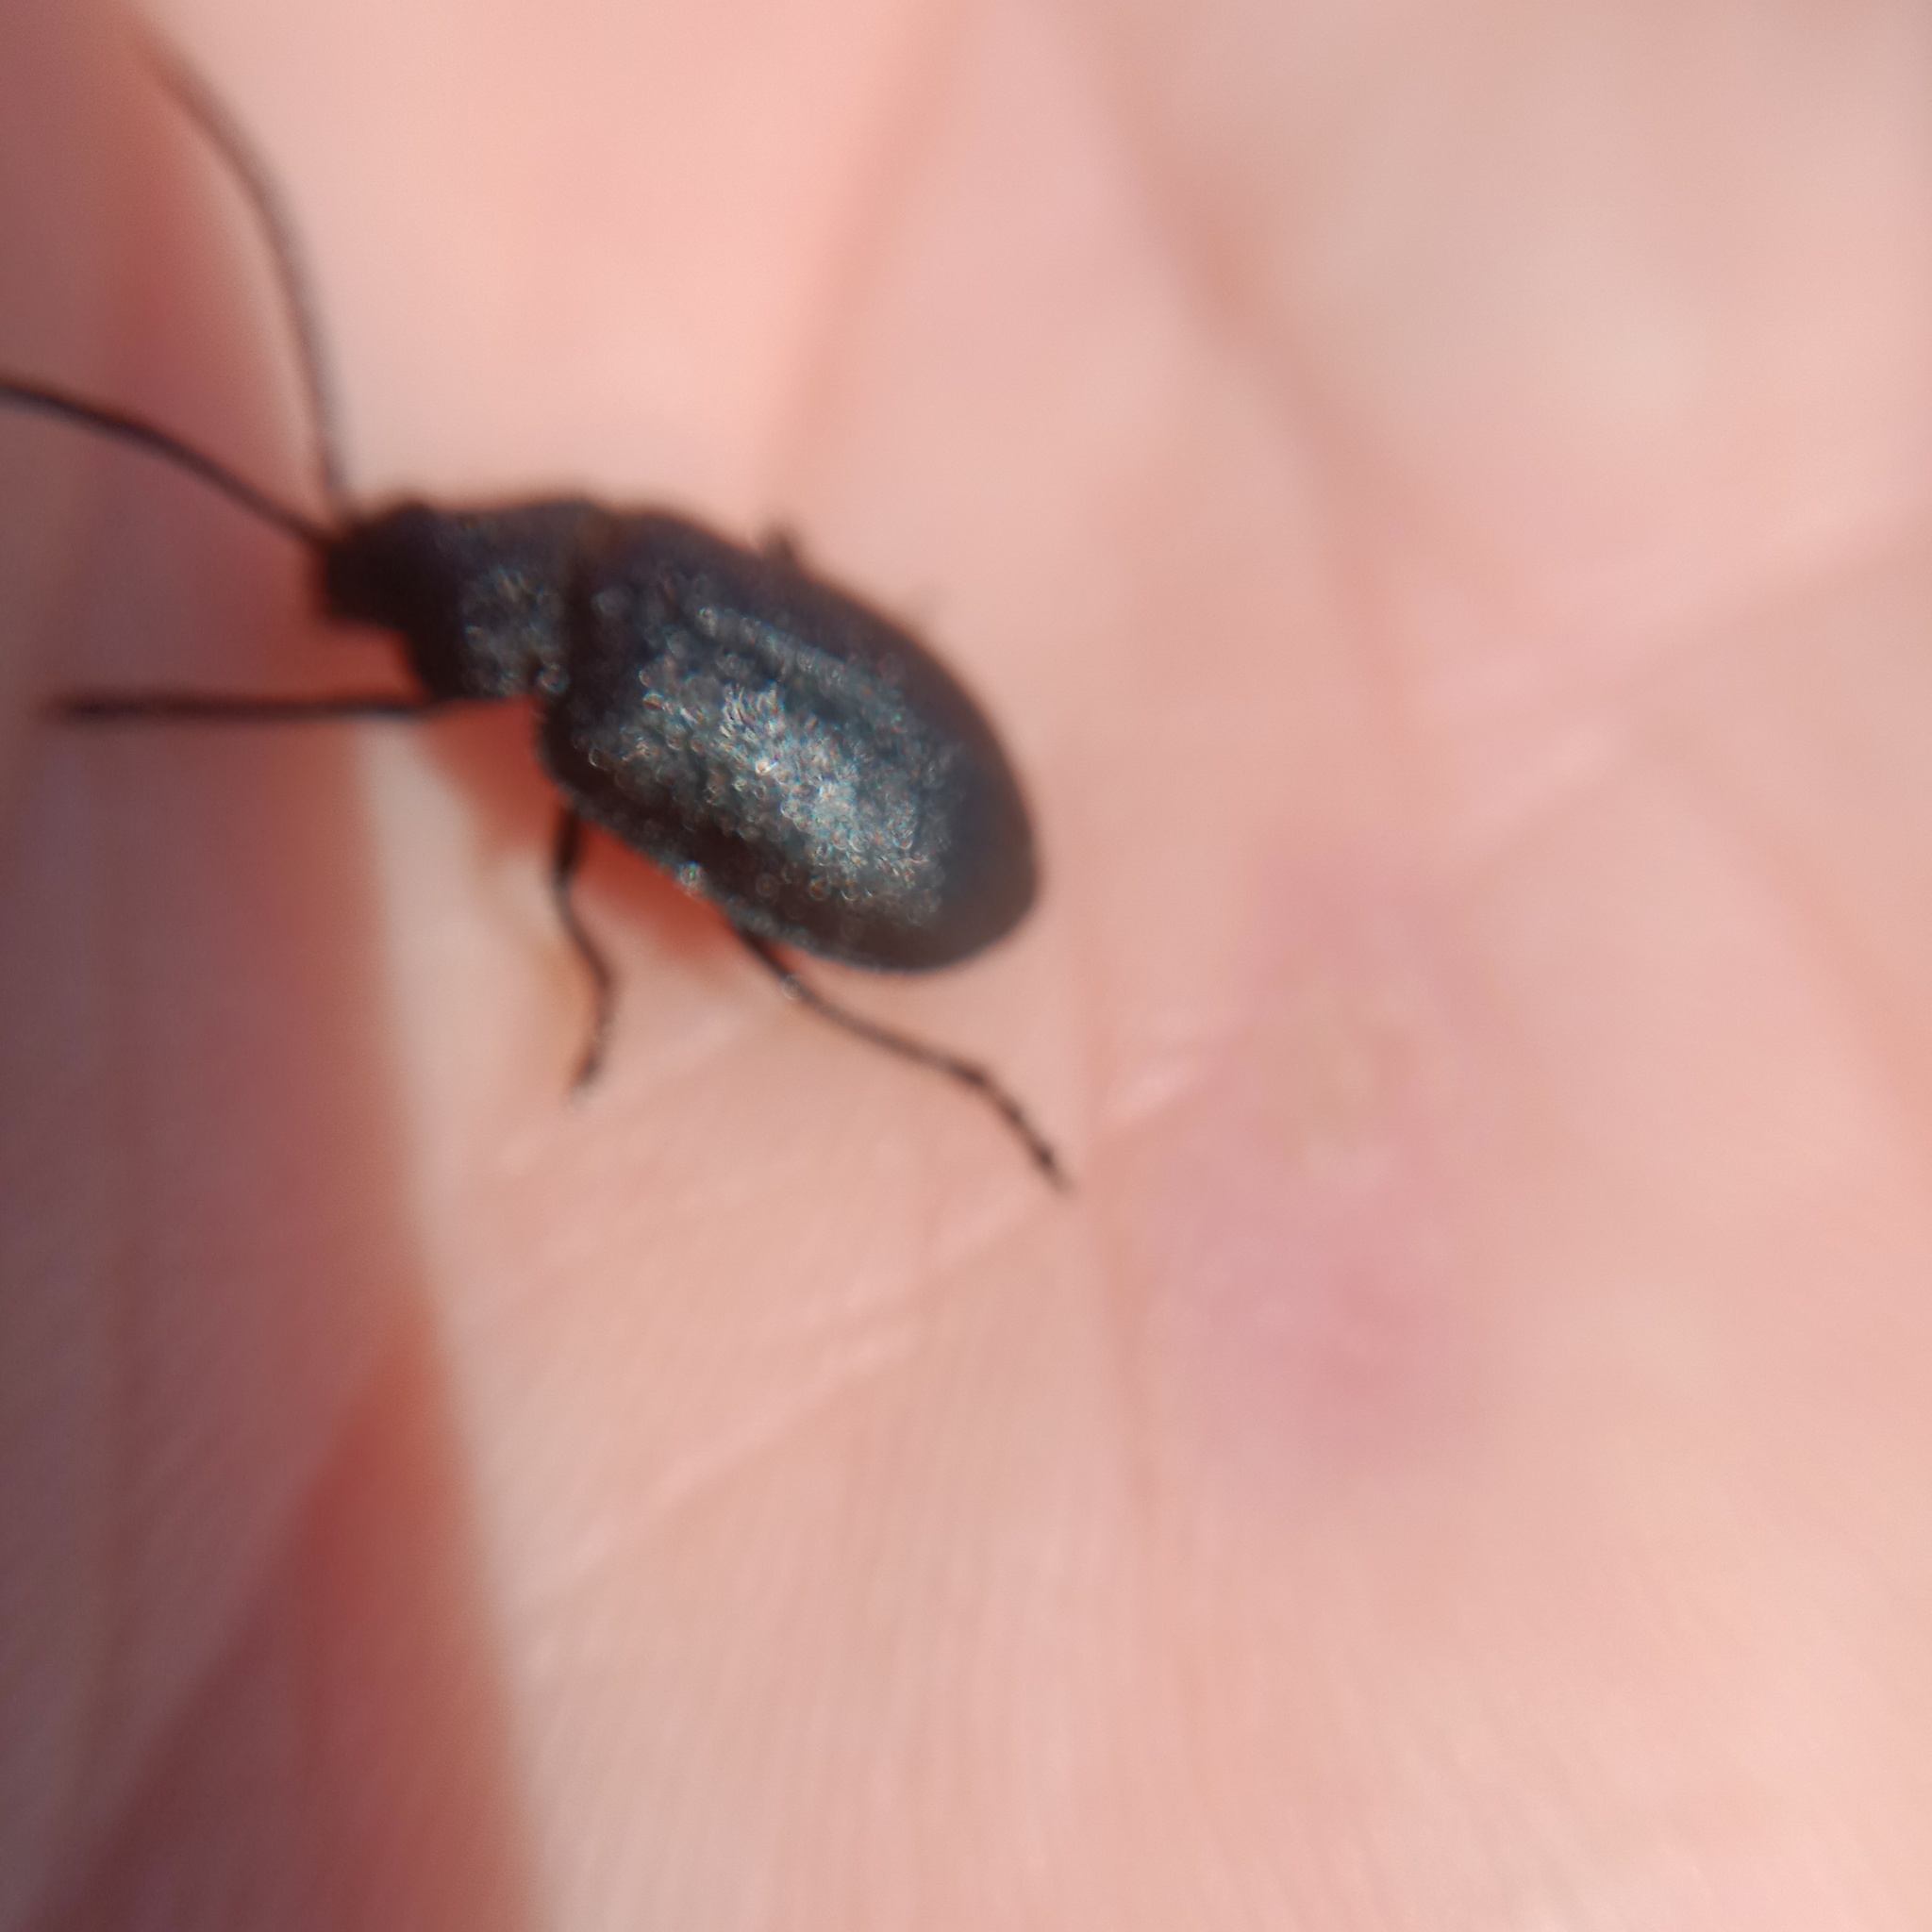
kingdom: Animalia
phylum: Arthropoda
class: Insecta
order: Coleoptera
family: Chrysomelidae
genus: Galeruca
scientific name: Galeruca tanaceti
